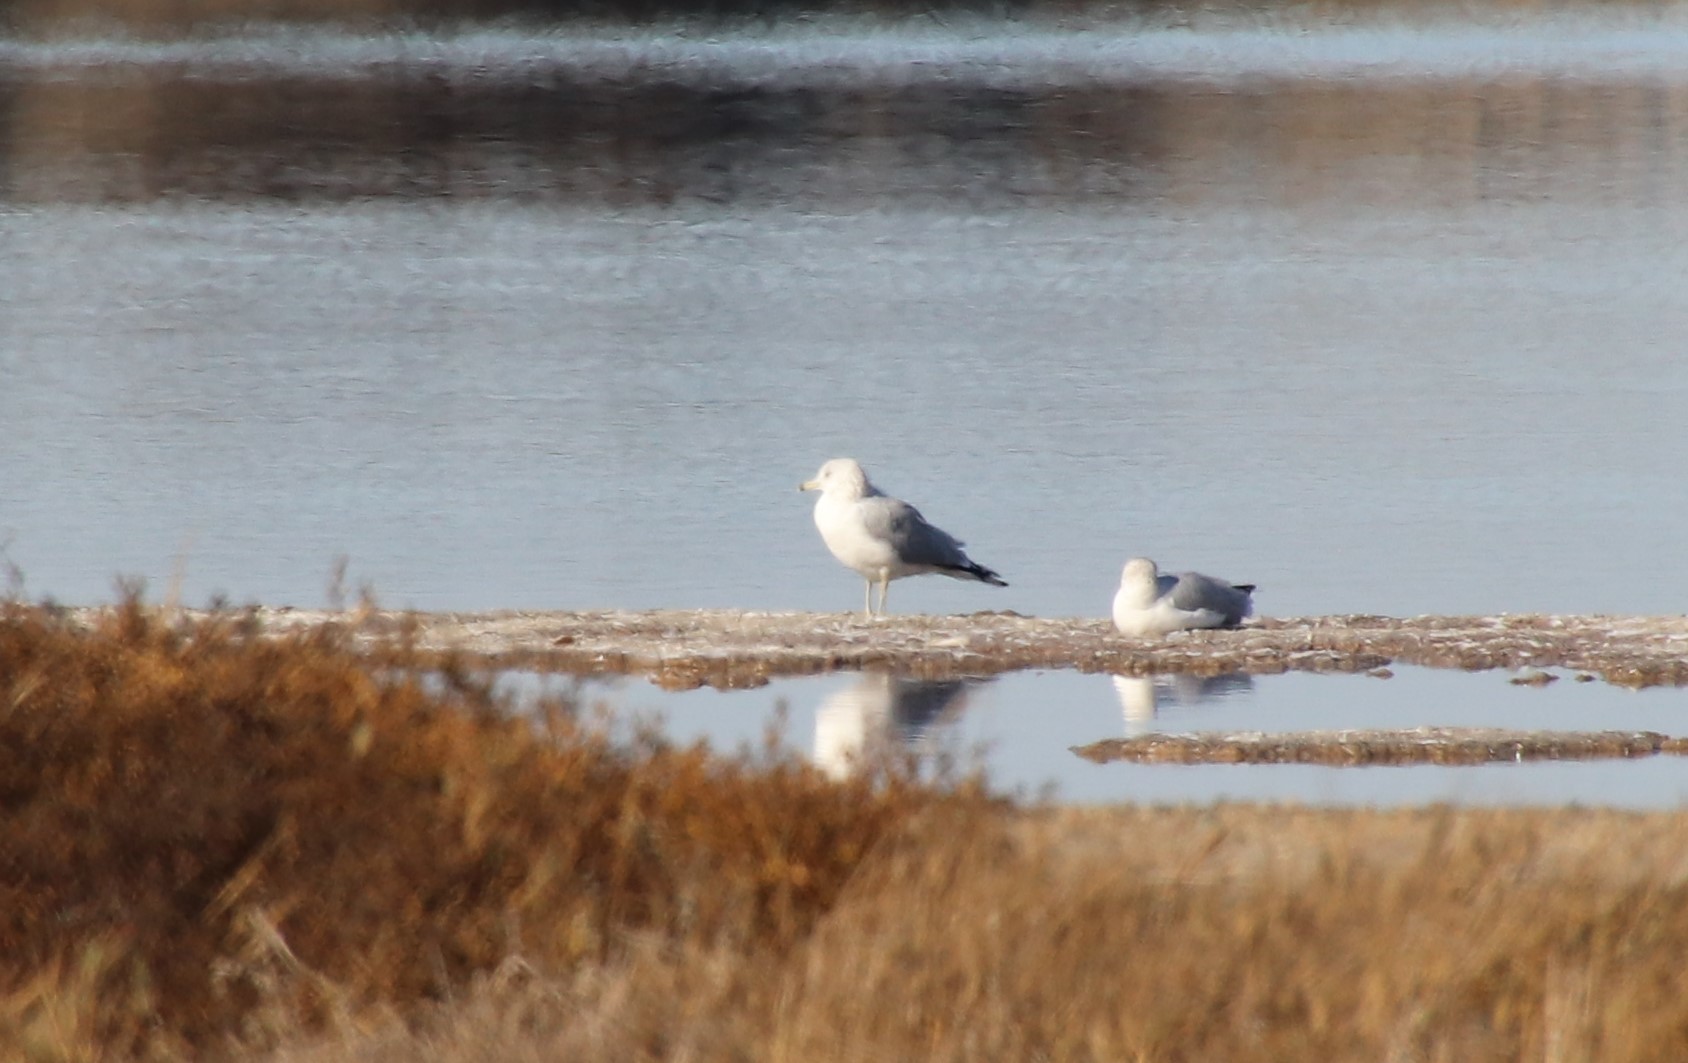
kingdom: Animalia
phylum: Chordata
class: Aves
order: Charadriiformes
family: Laridae
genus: Larus
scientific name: Larus delawarensis
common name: Ring-billed gull
